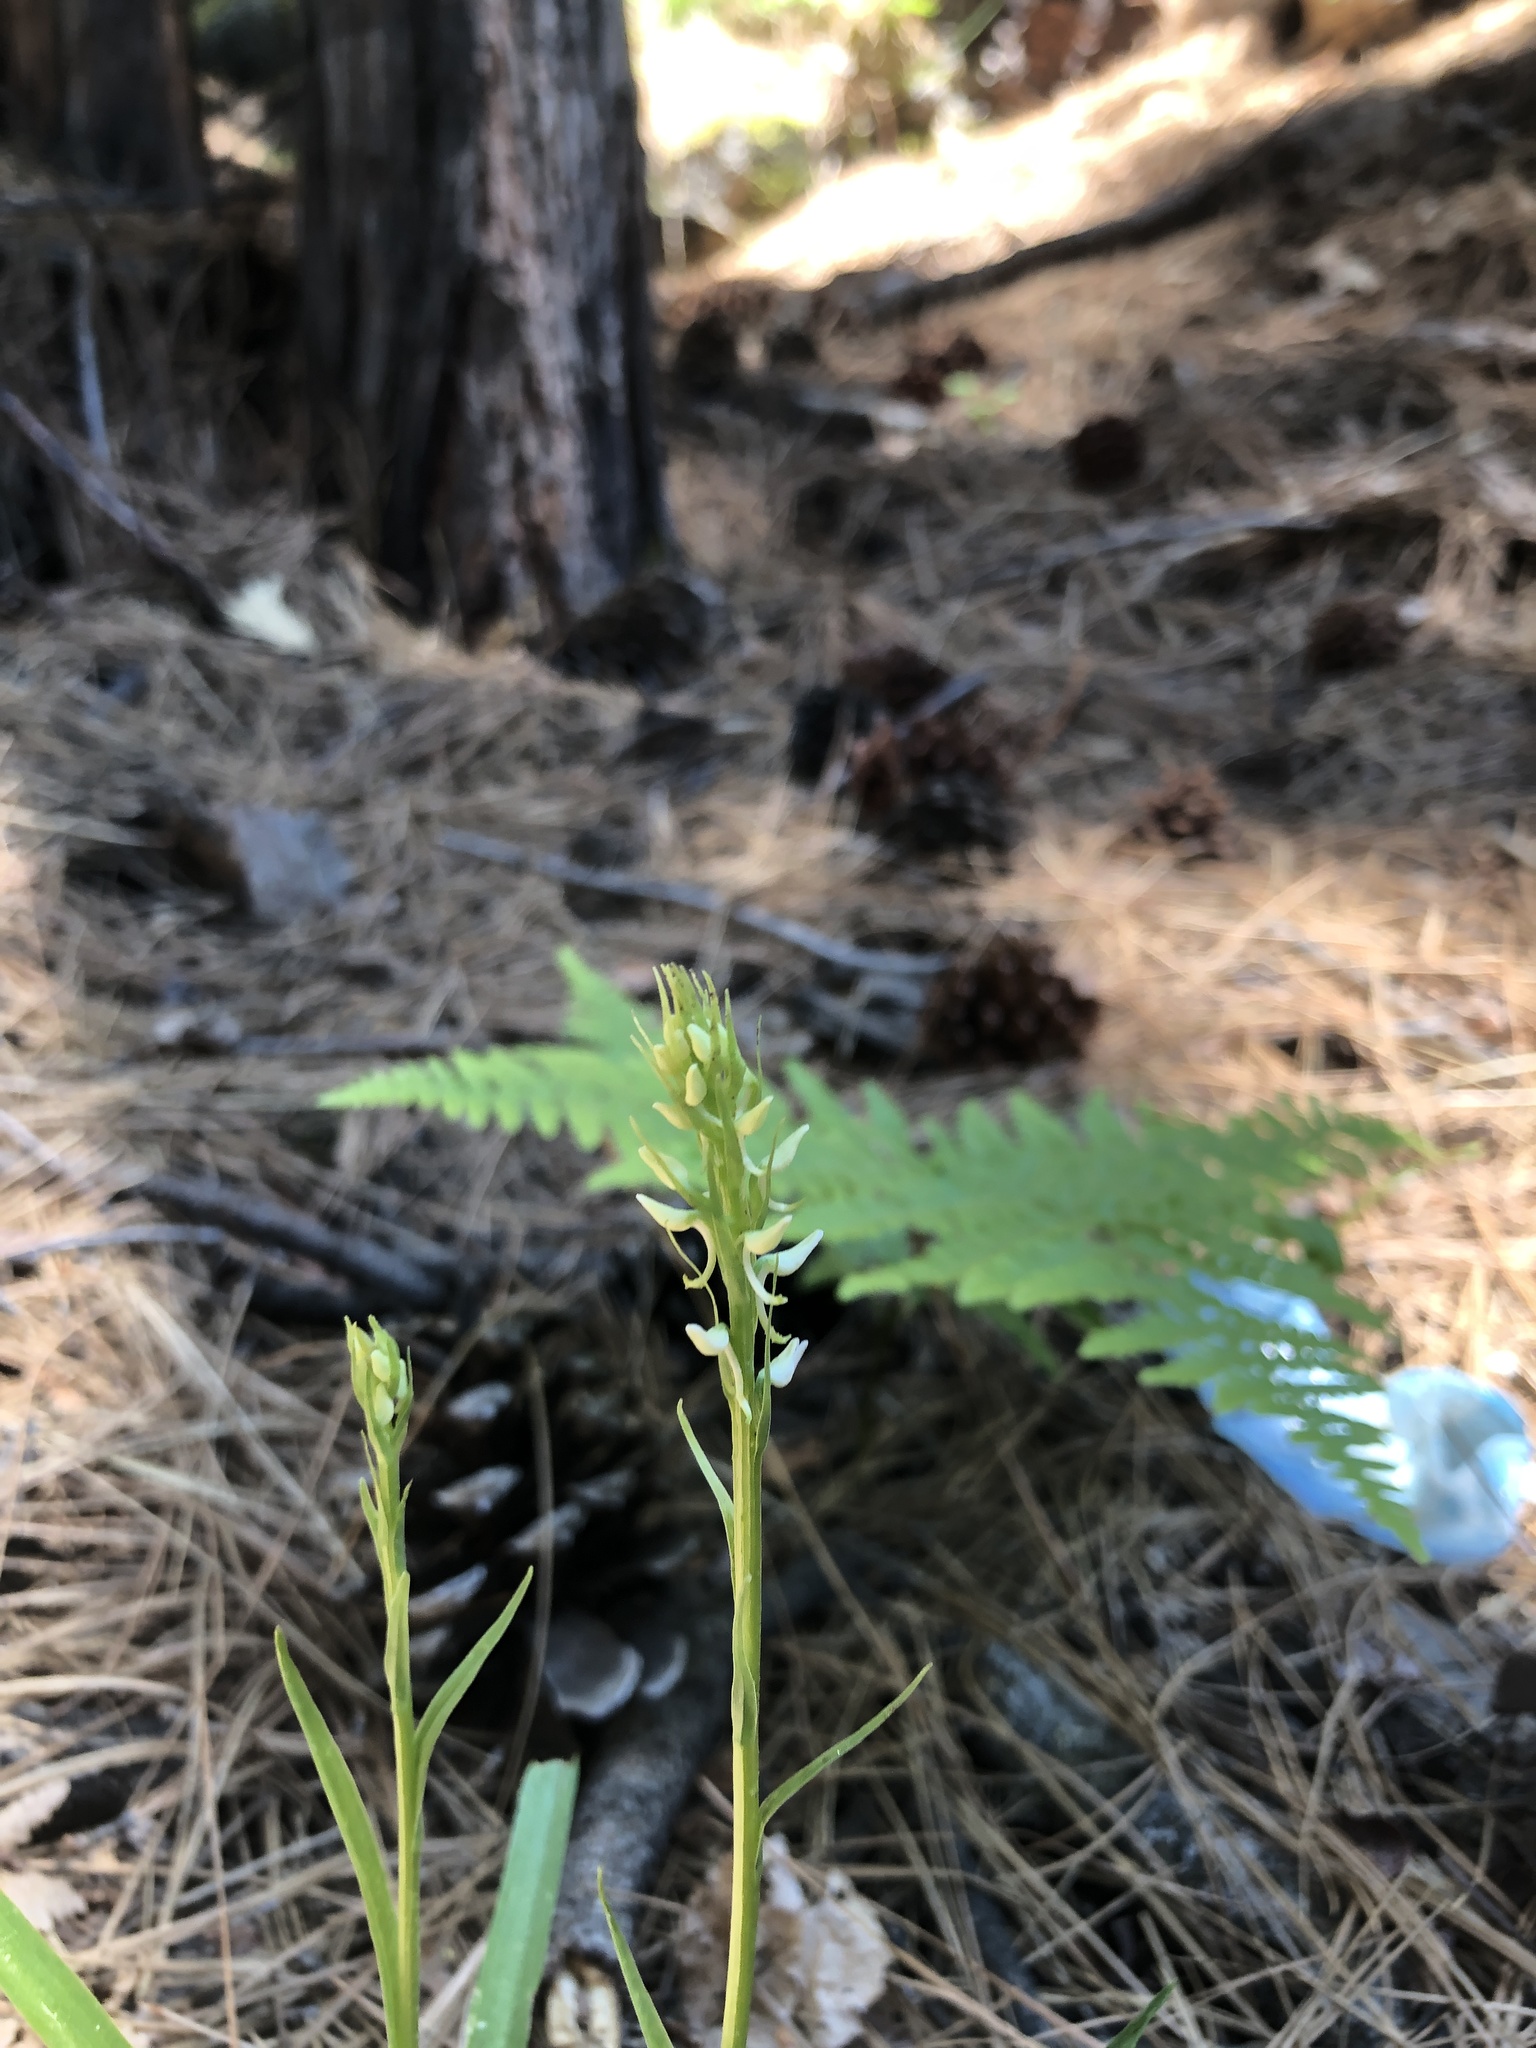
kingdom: Plantae
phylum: Tracheophyta
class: Liliopsida
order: Asparagales
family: Orchidaceae
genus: Platanthera
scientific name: Platanthera dilatata
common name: Bog candles
